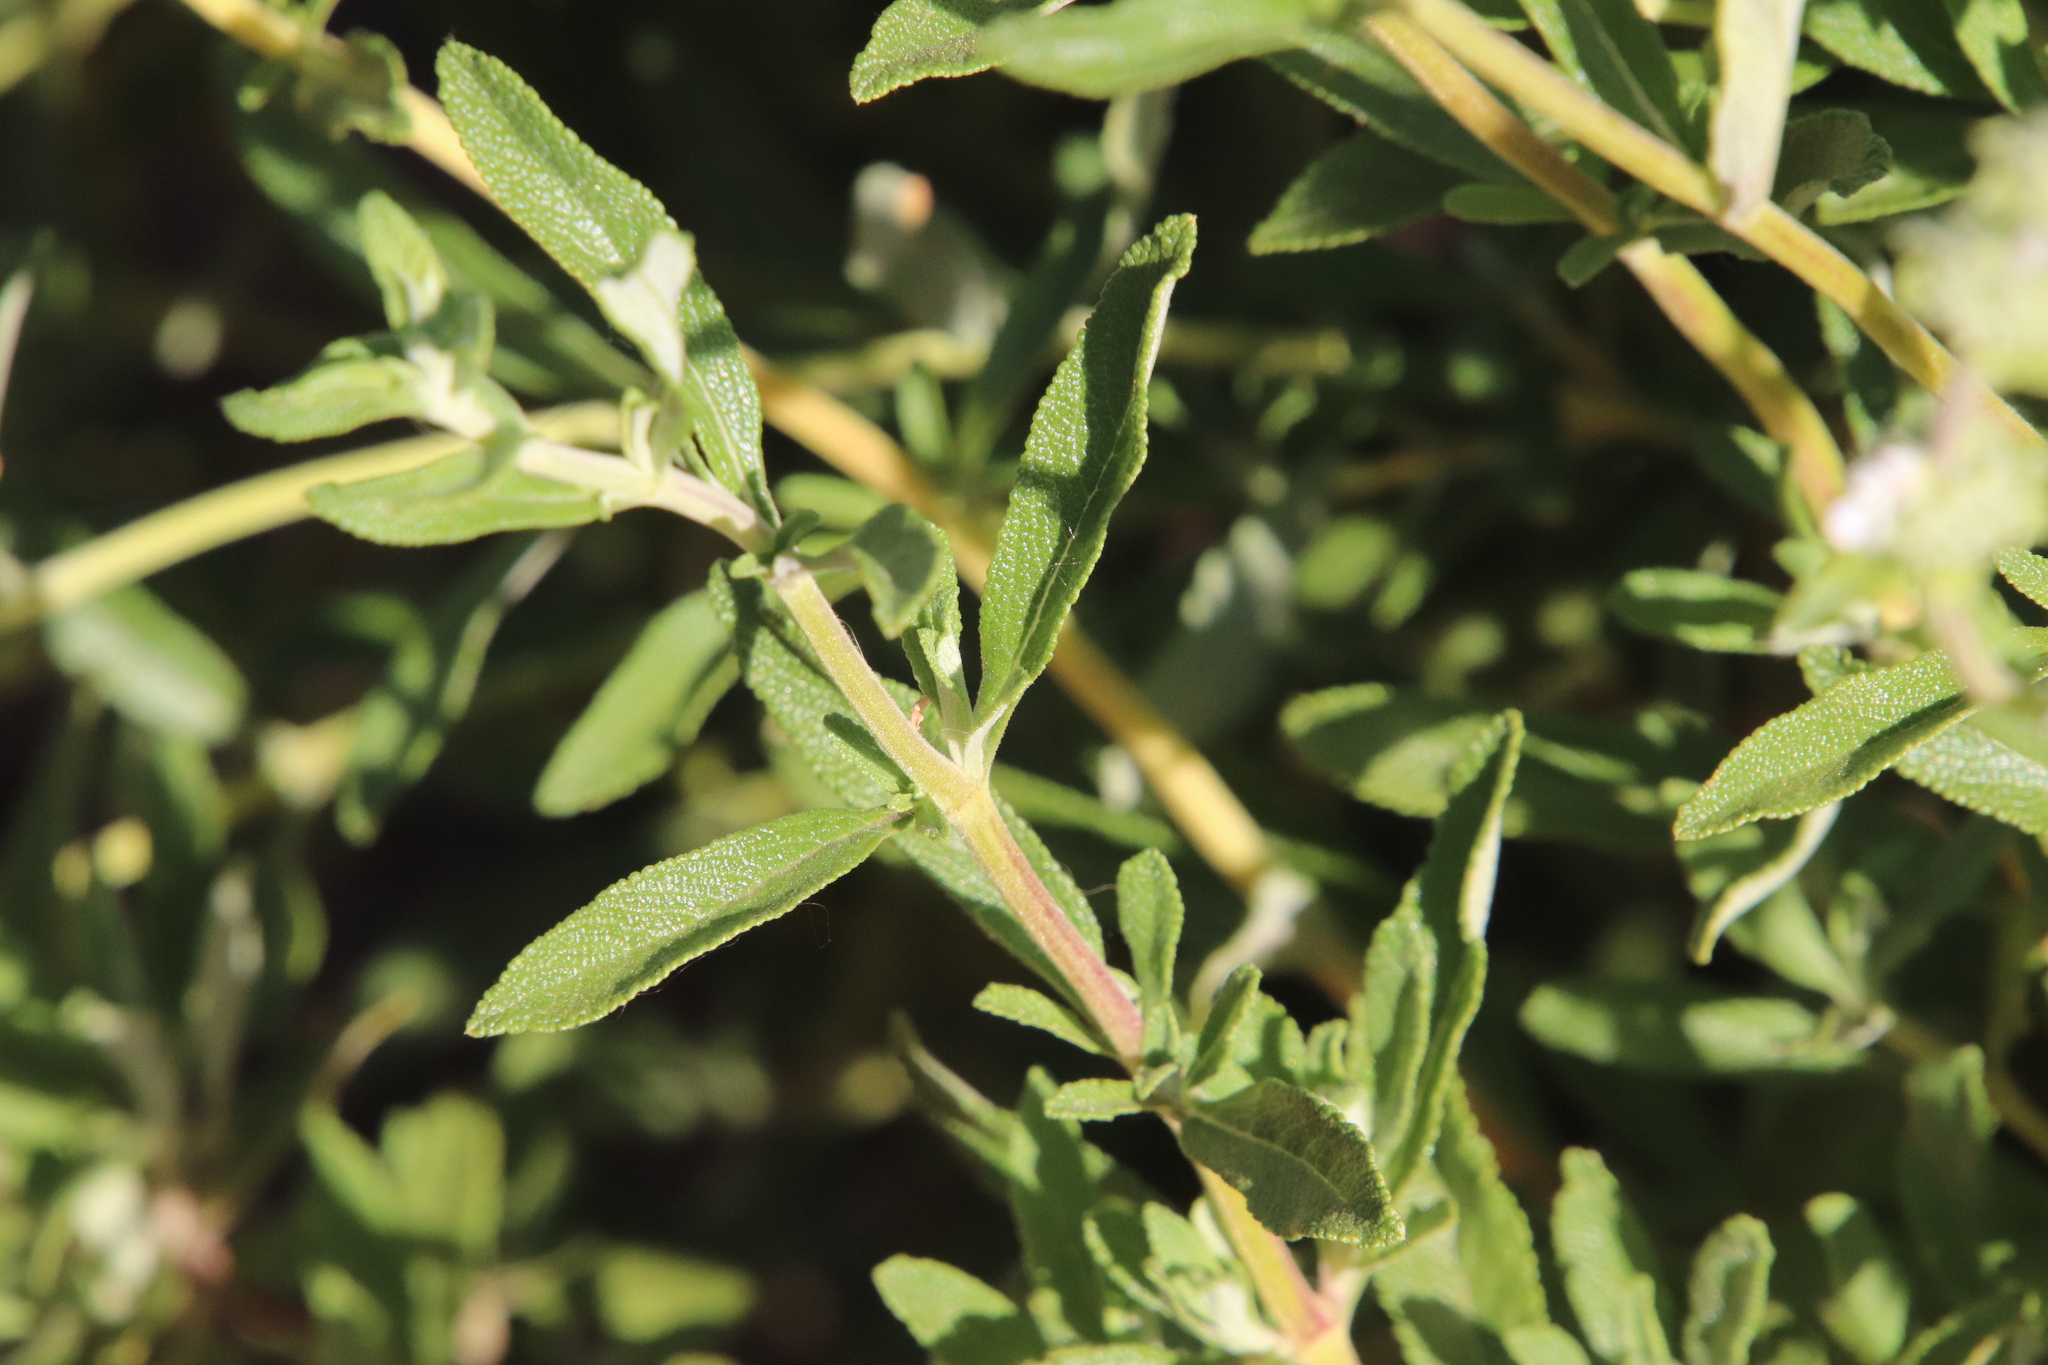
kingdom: Plantae
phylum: Tracheophyta
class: Magnoliopsida
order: Lamiales
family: Lamiaceae
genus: Salvia
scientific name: Salvia mellifera
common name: Black sage
